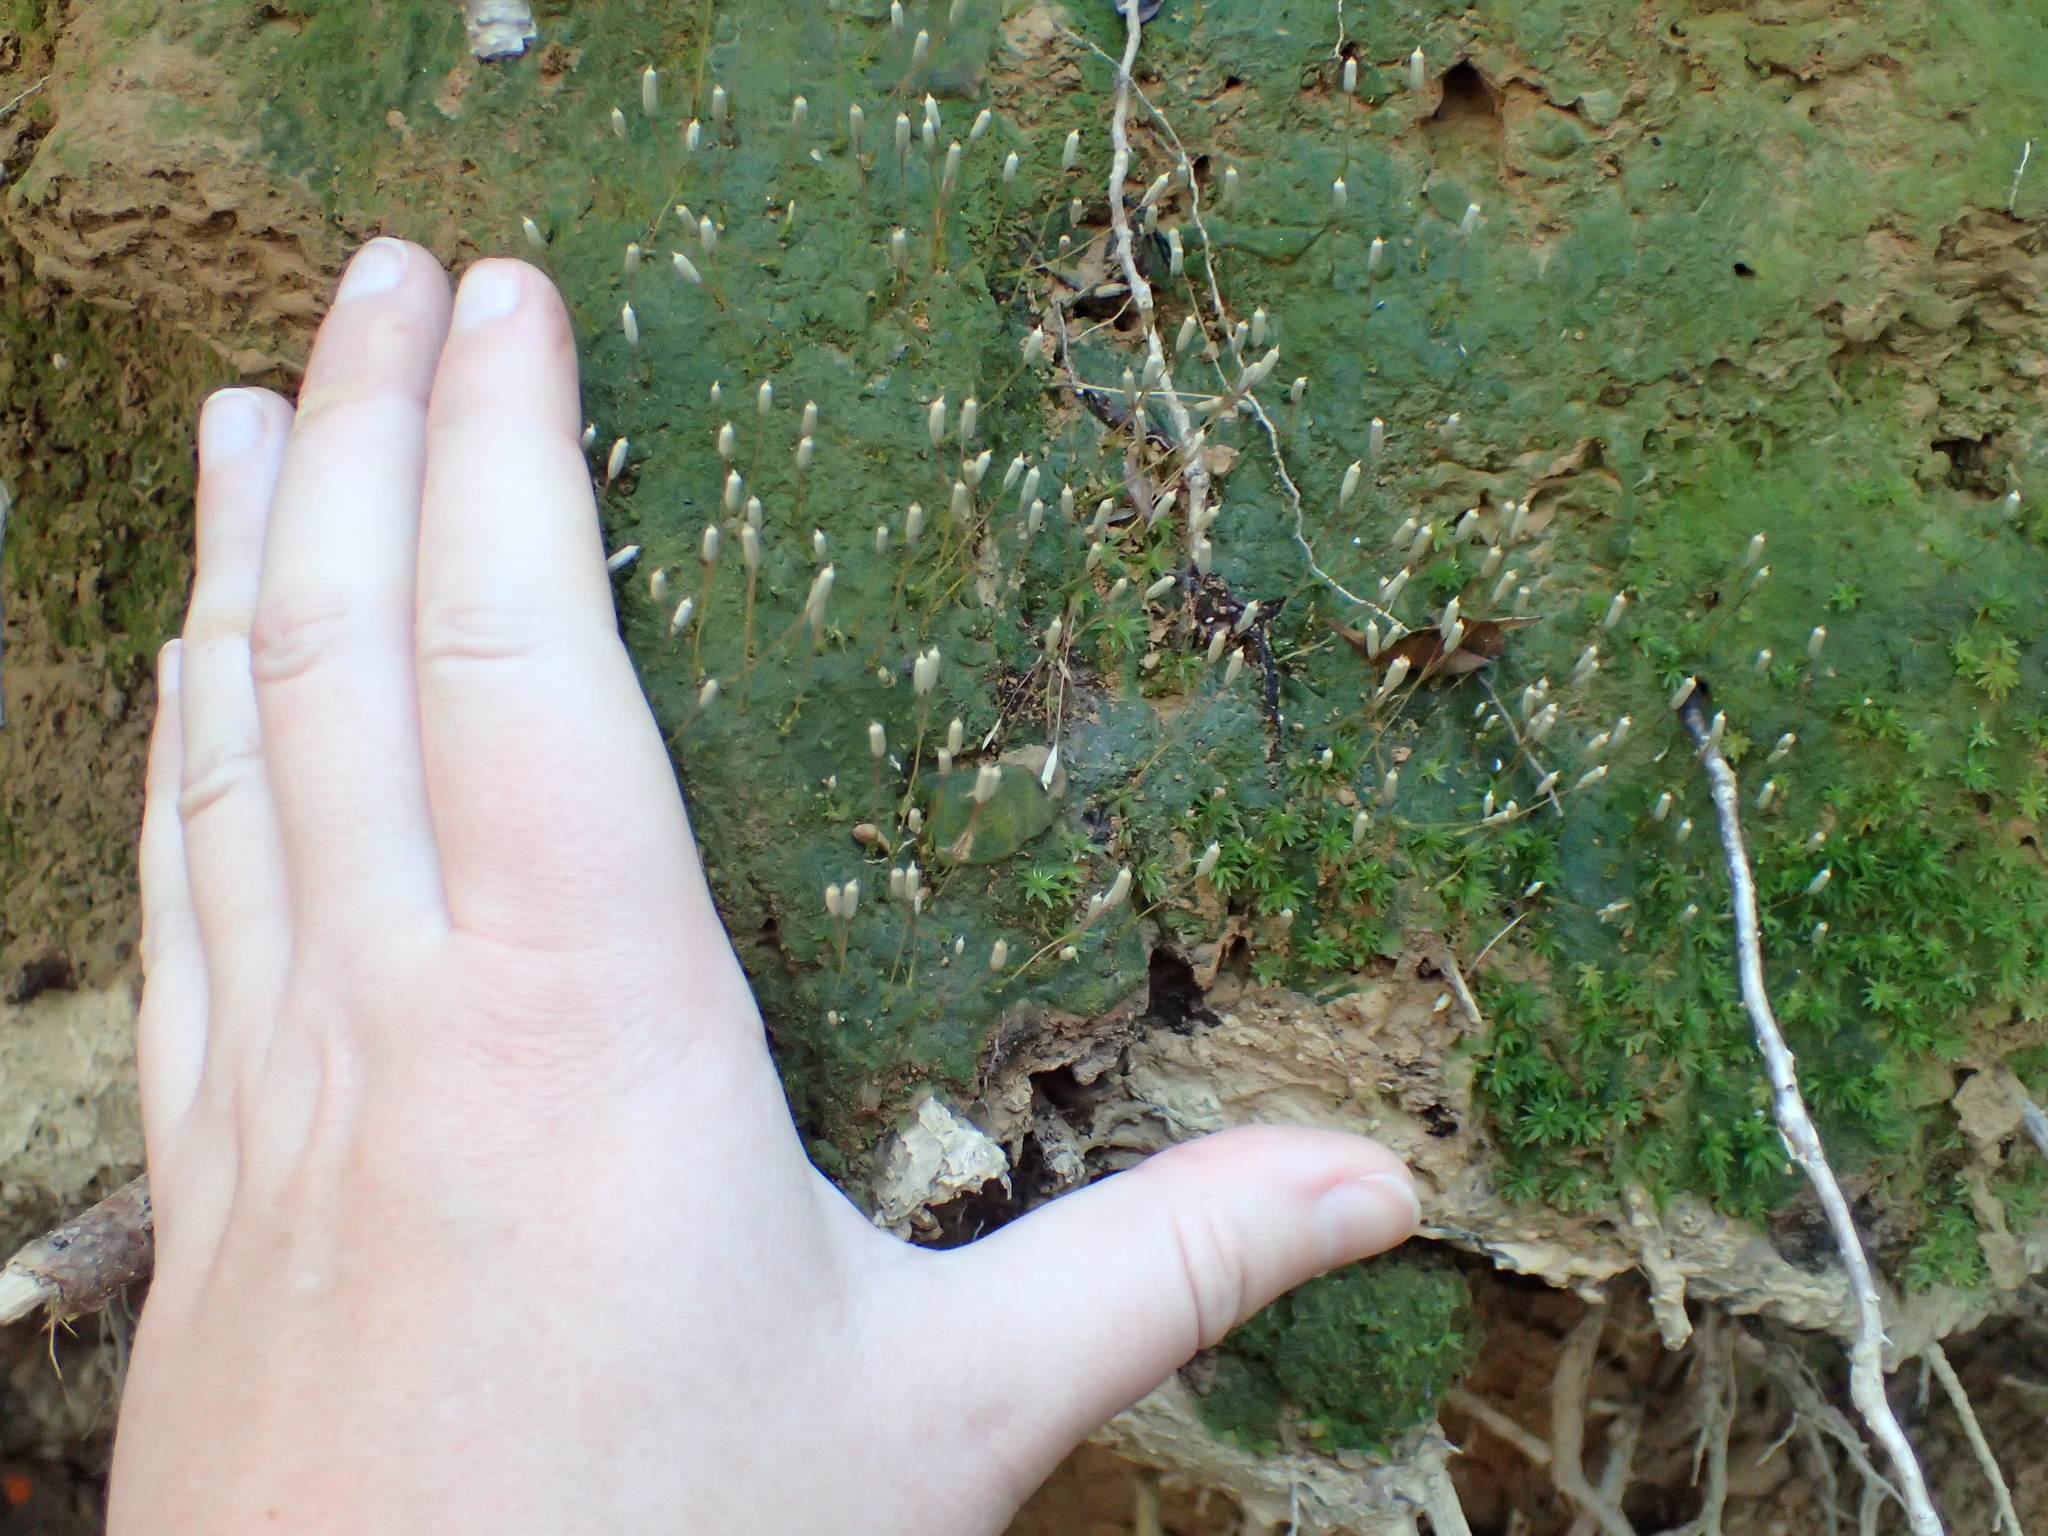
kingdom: Plantae
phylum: Bryophyta
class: Polytrichopsida
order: Polytrichales
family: Polytrichaceae
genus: Pogonatum
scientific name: Pogonatum pensilvanicum
